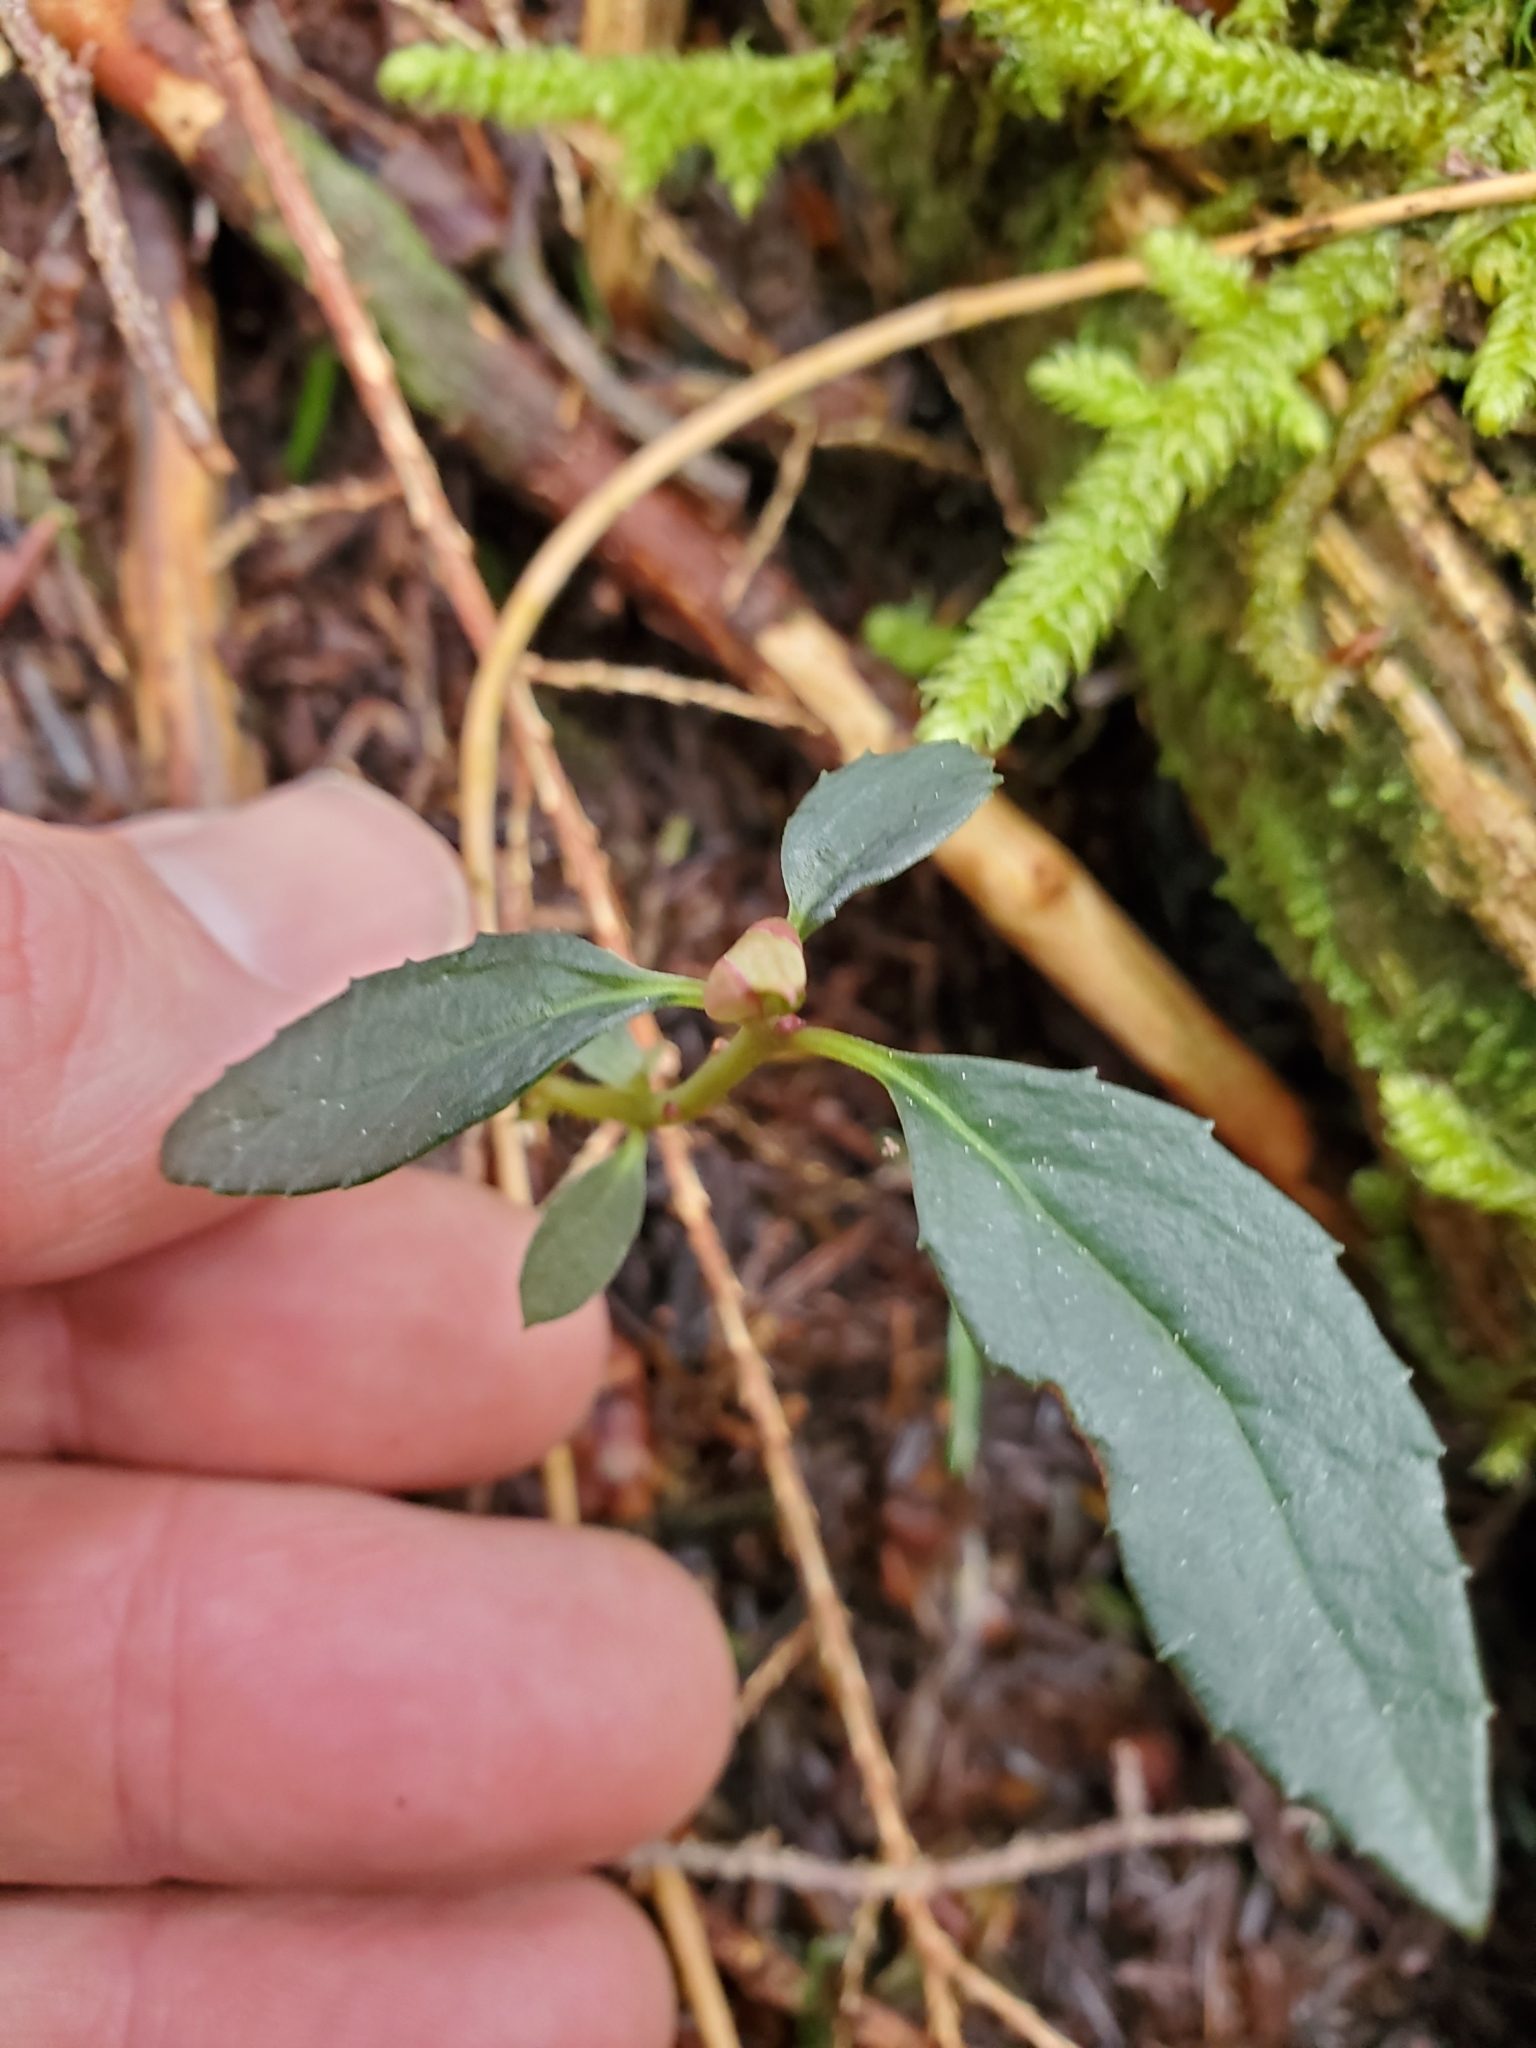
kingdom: Plantae
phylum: Tracheophyta
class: Magnoliopsida
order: Ericales
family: Ericaceae
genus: Chimaphila
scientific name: Chimaphila menziesii
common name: Menzies' pipsissewa
